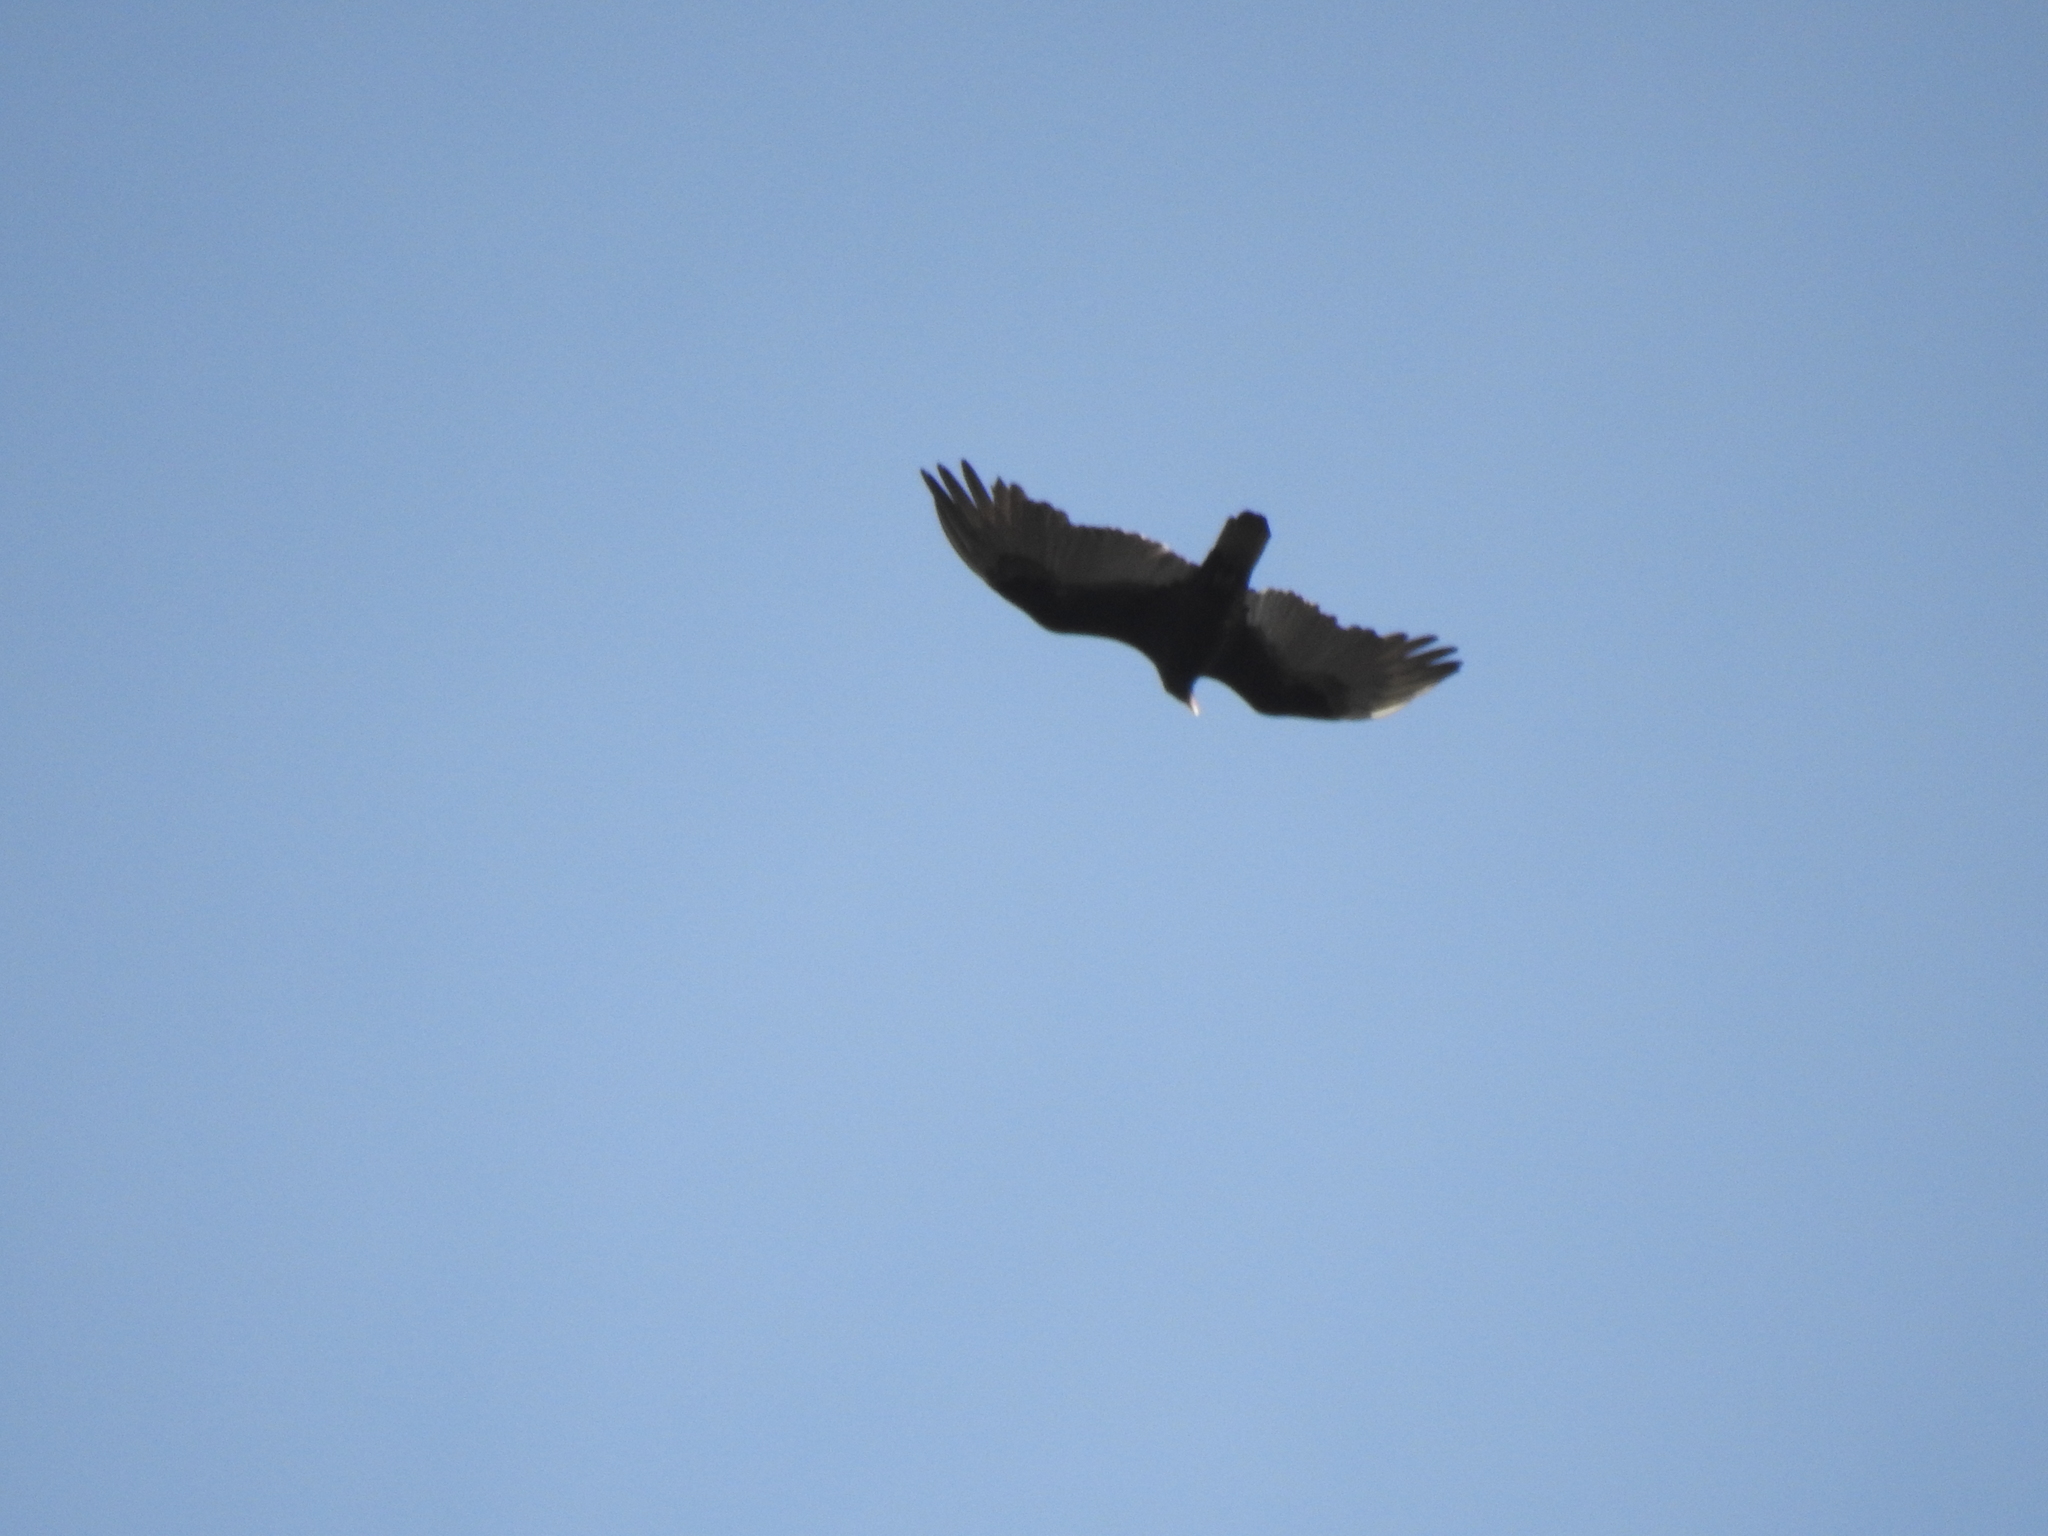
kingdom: Animalia
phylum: Chordata
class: Aves
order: Accipitriformes
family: Cathartidae
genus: Cathartes
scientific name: Cathartes aura
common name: Turkey vulture
